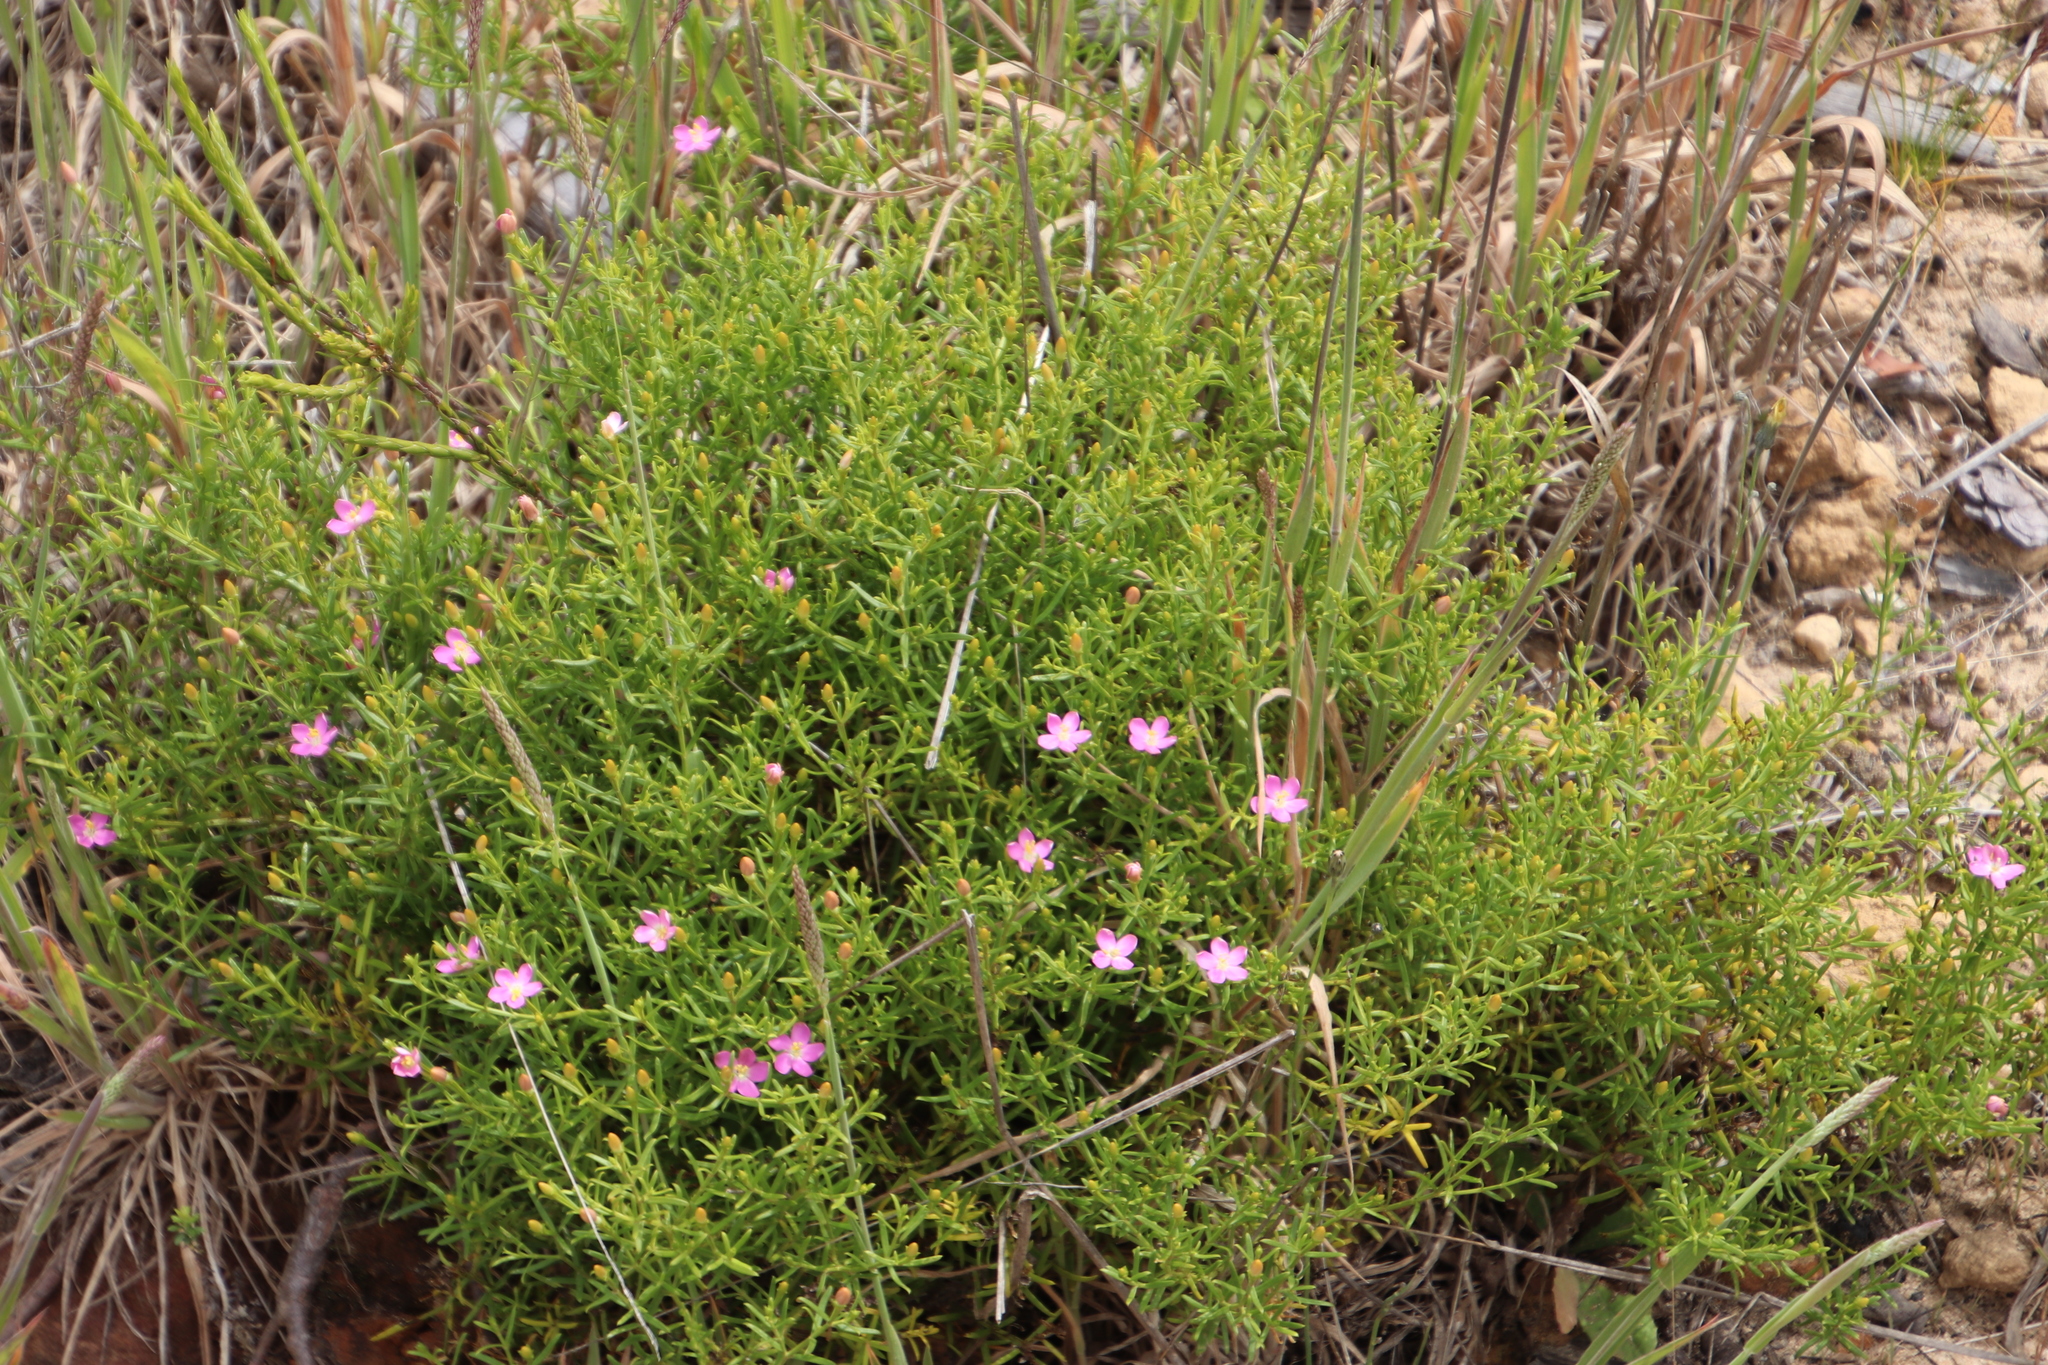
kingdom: Plantae
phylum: Tracheophyta
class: Magnoliopsida
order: Gentianales
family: Gentianaceae
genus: Chironia
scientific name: Chironia baccifera
